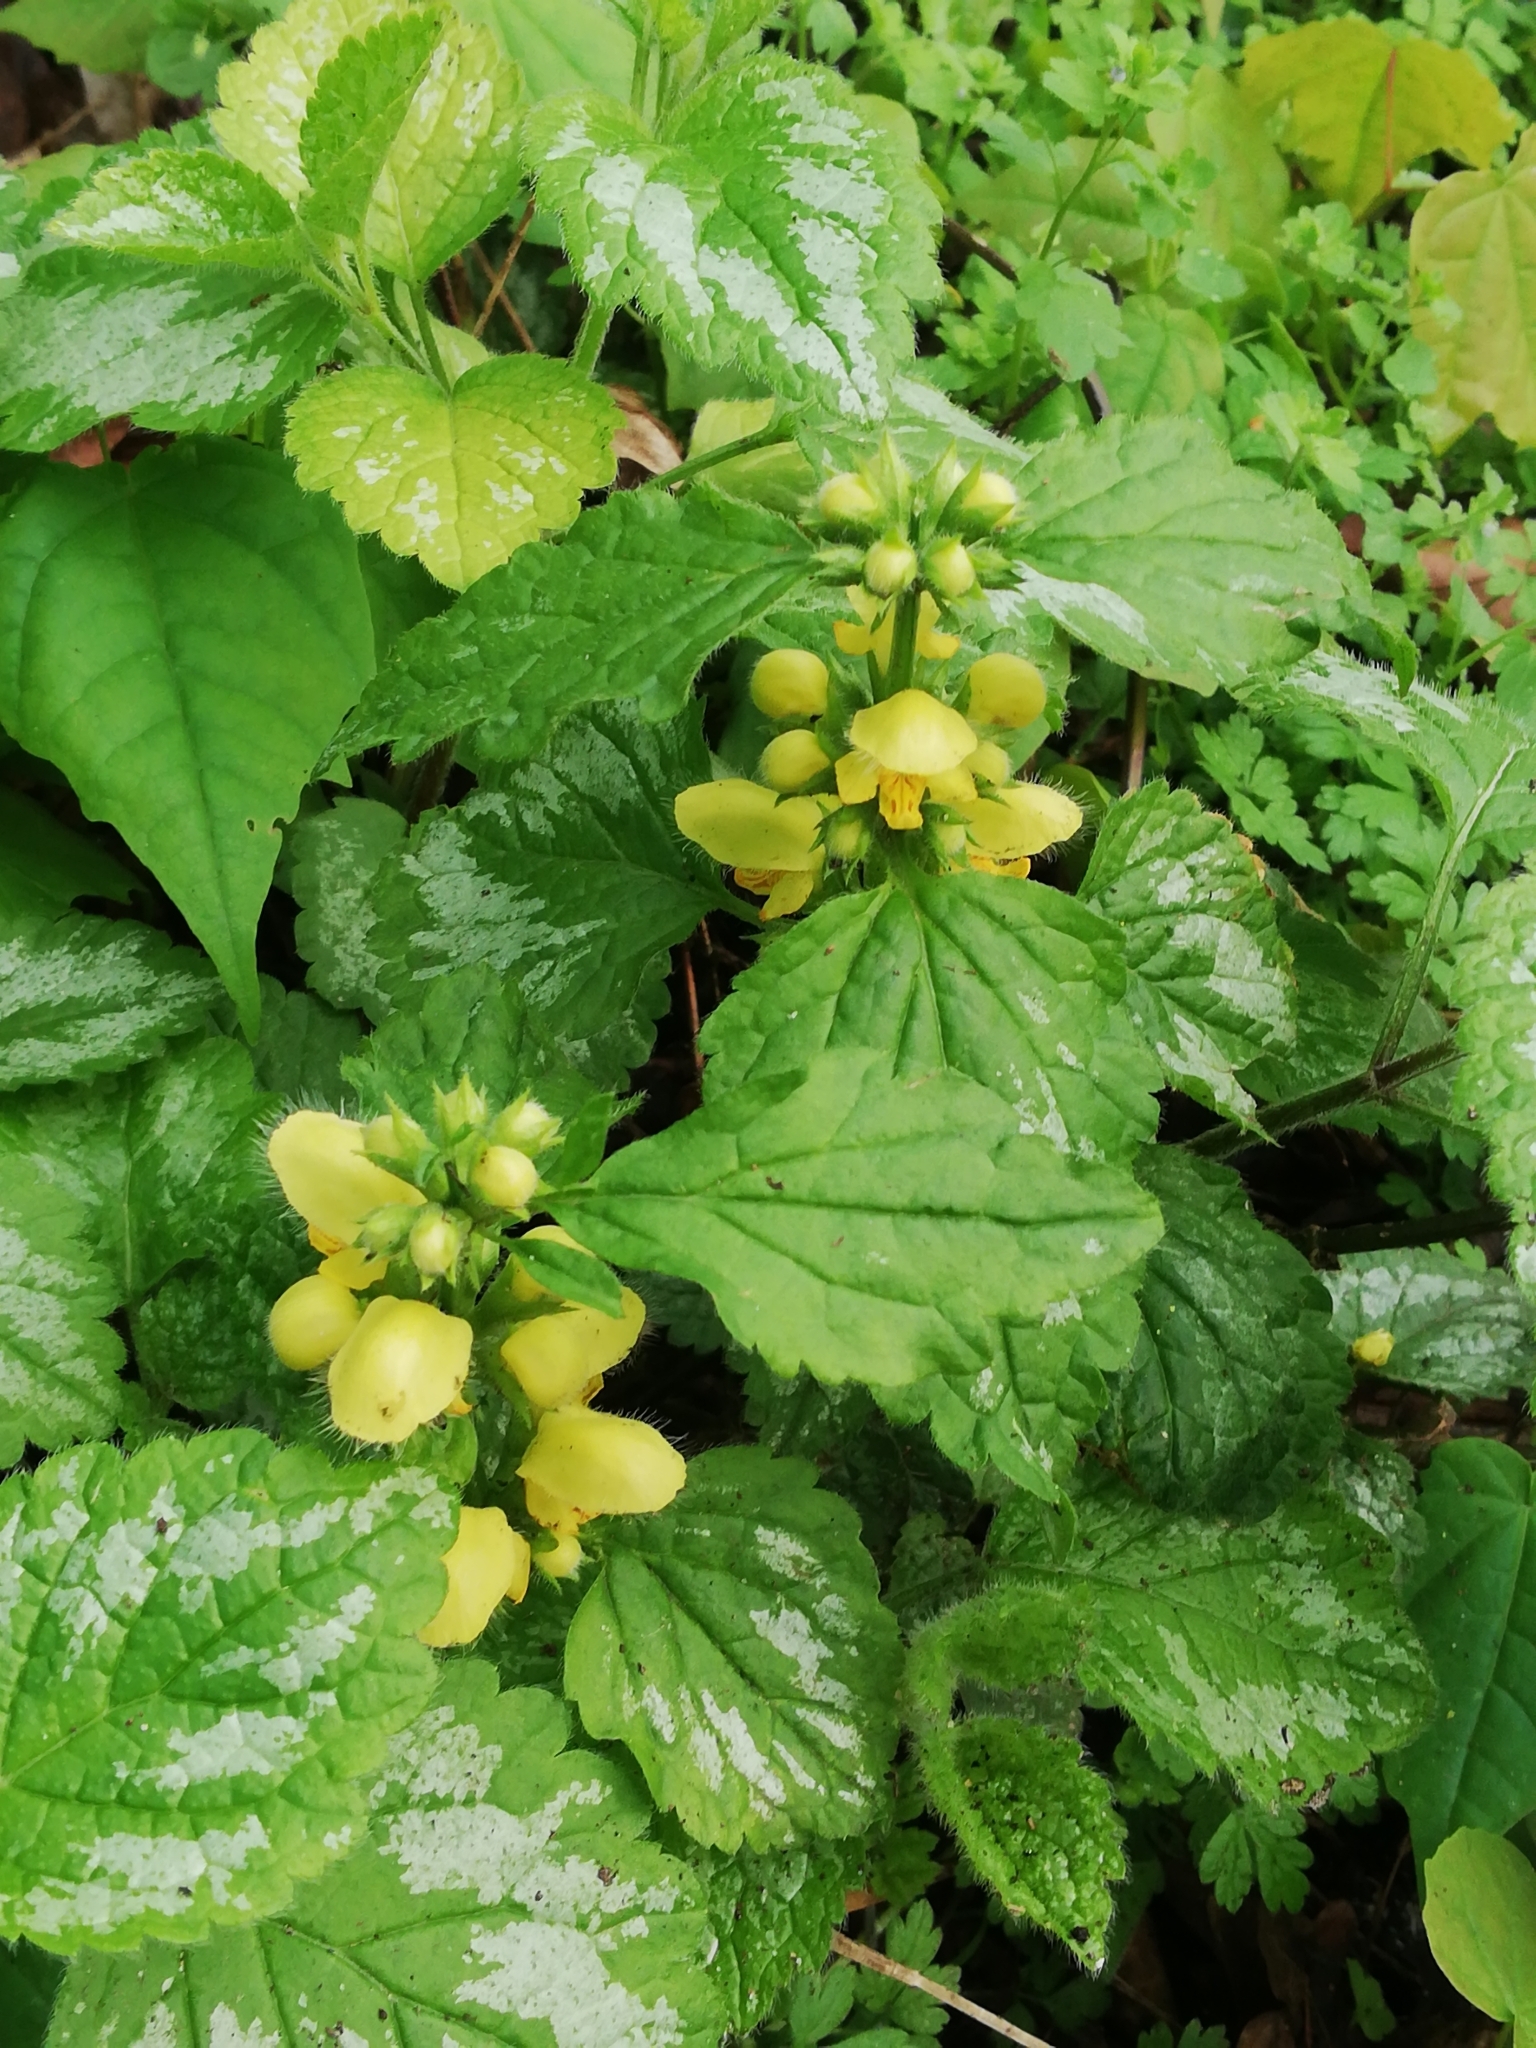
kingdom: Plantae
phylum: Tracheophyta
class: Magnoliopsida
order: Lamiales
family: Lamiaceae
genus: Lamium
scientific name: Lamium galeobdolon
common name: Yellow archangel
